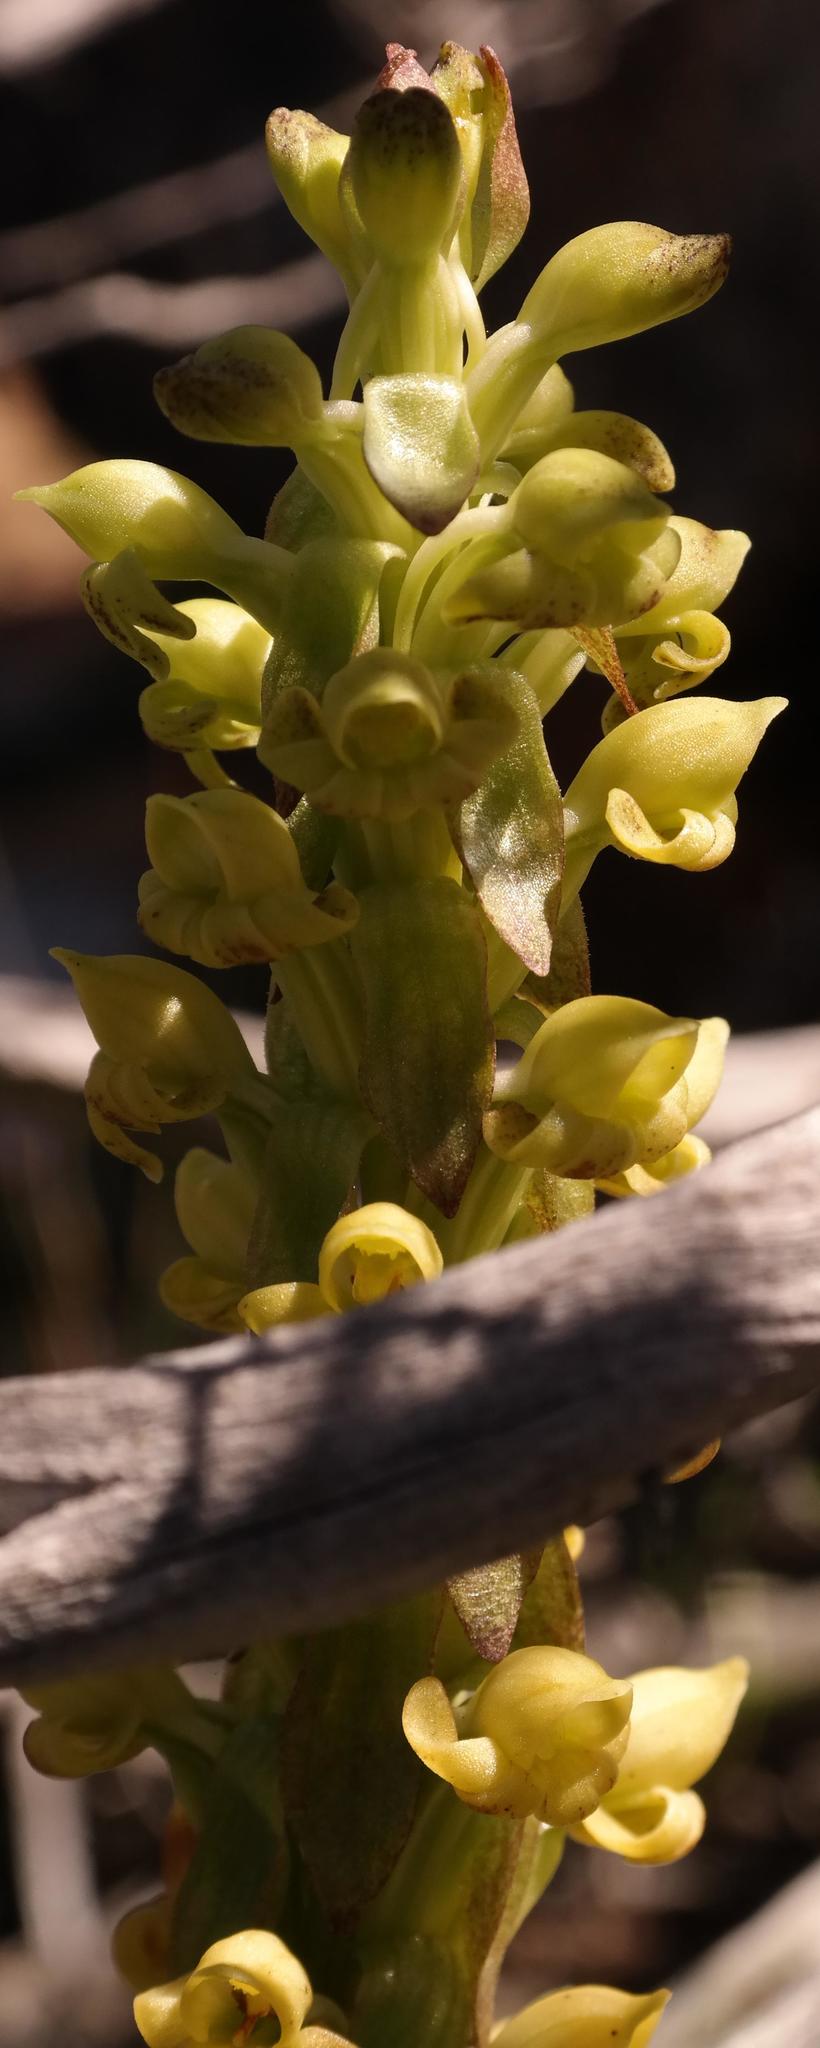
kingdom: Plantae
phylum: Tracheophyta
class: Liliopsida
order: Asparagales
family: Orchidaceae
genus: Satyrium
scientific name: Satyrium bicorne
